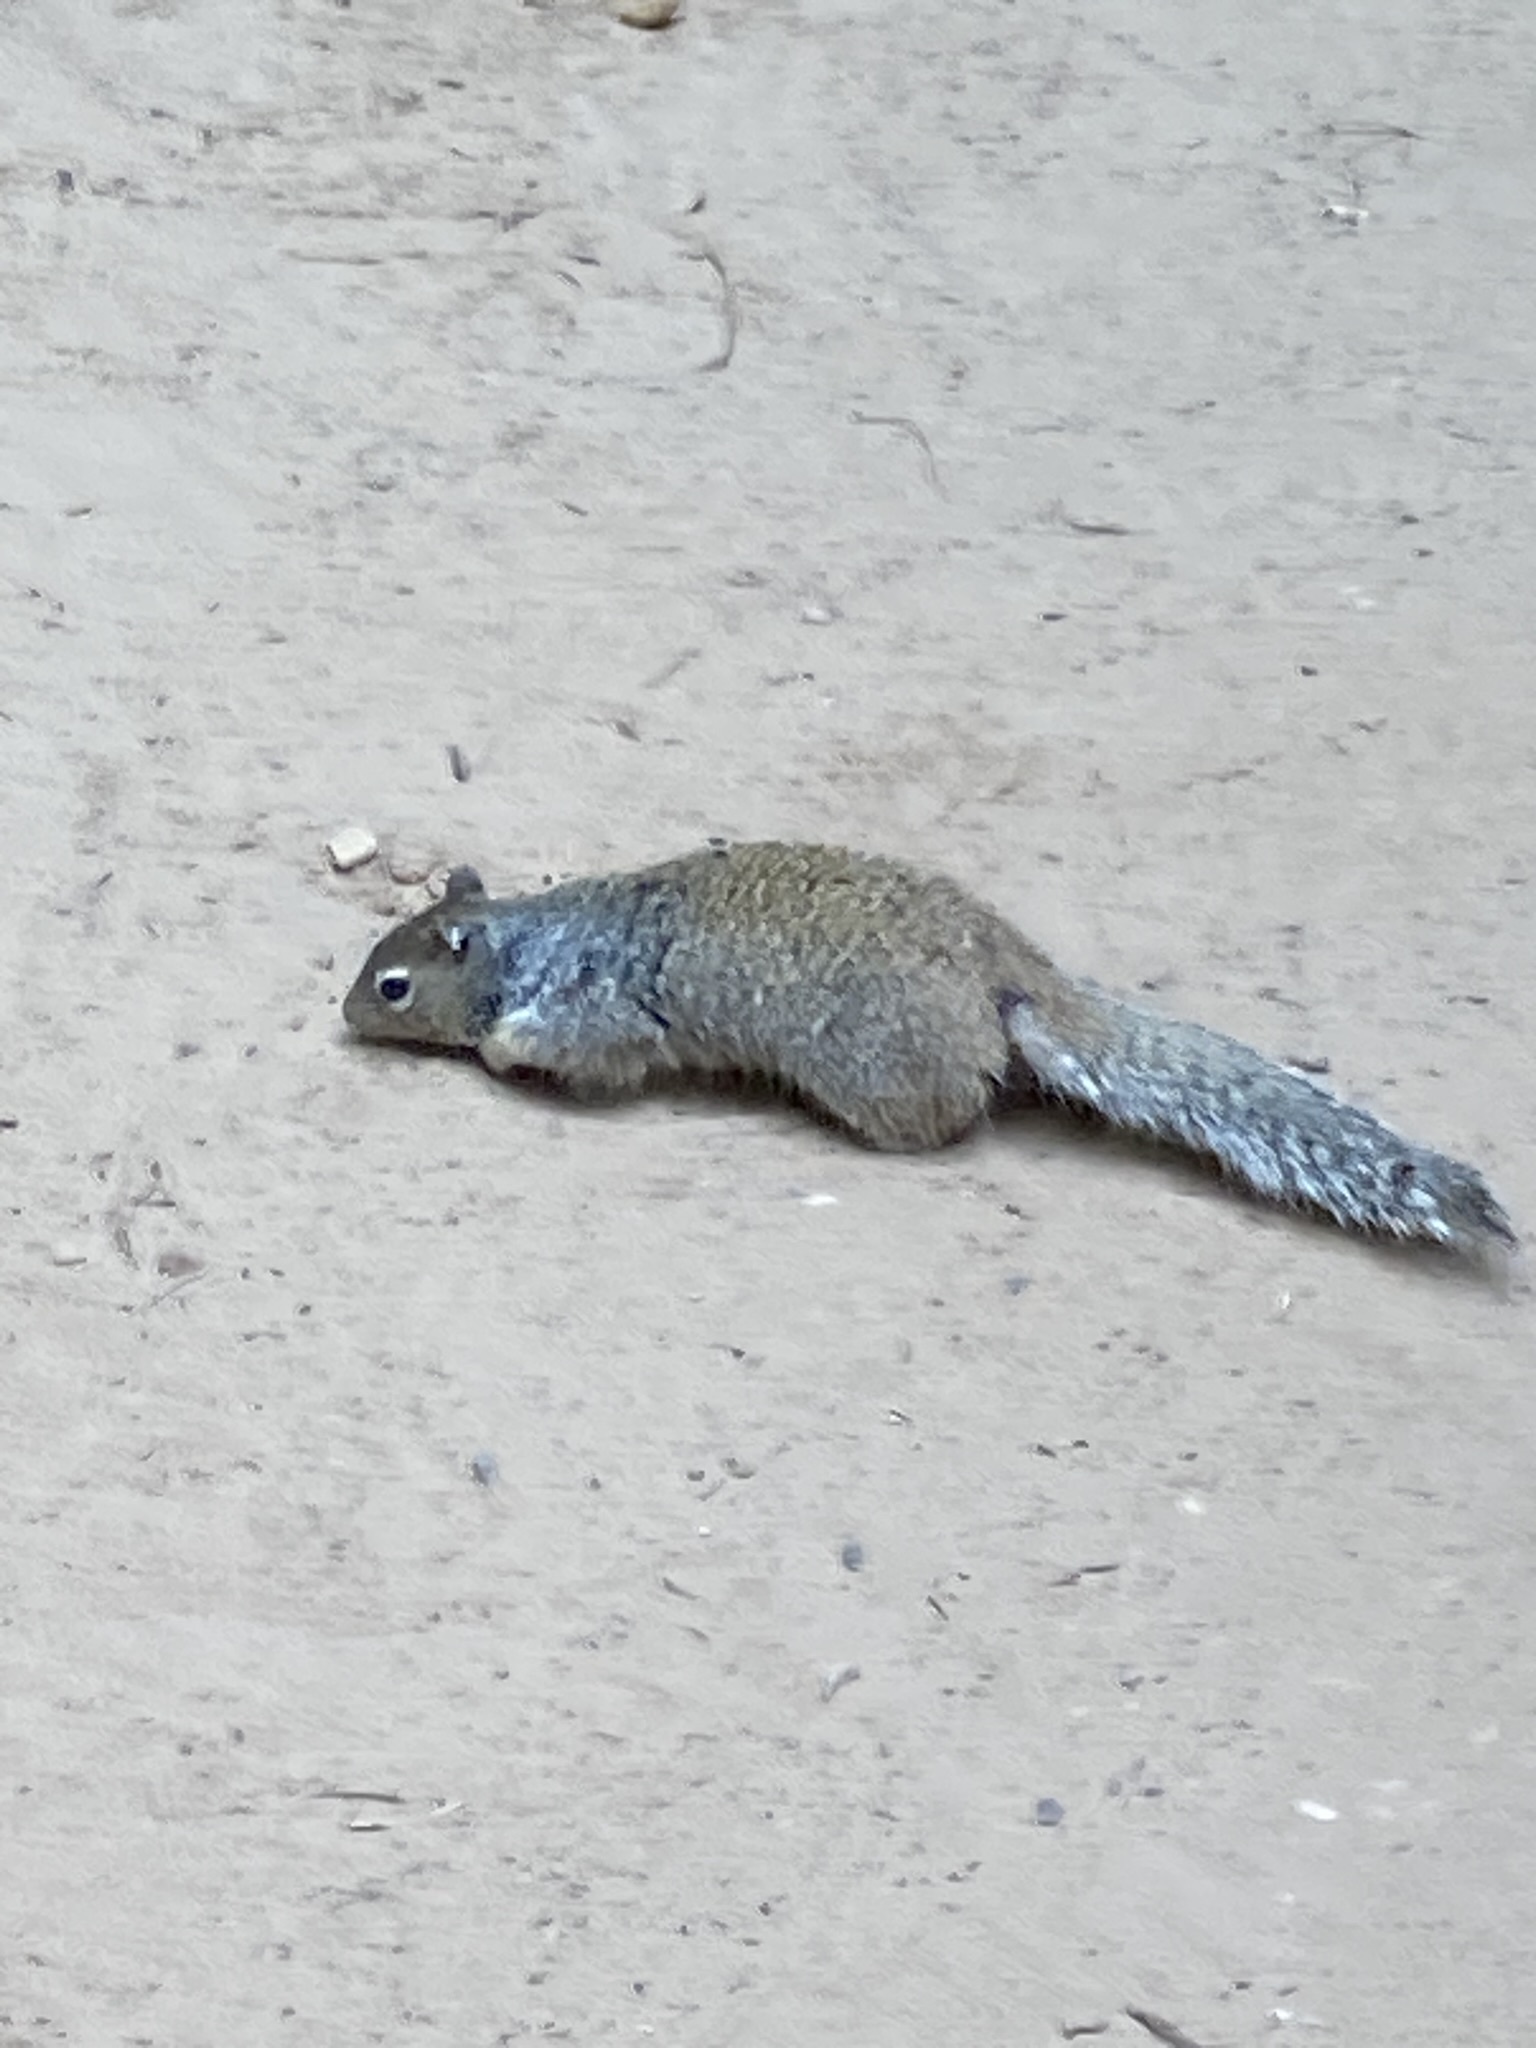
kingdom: Animalia
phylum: Chordata
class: Mammalia
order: Rodentia
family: Sciuridae
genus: Otospermophilus
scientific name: Otospermophilus variegatus
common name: Rock squirrel
